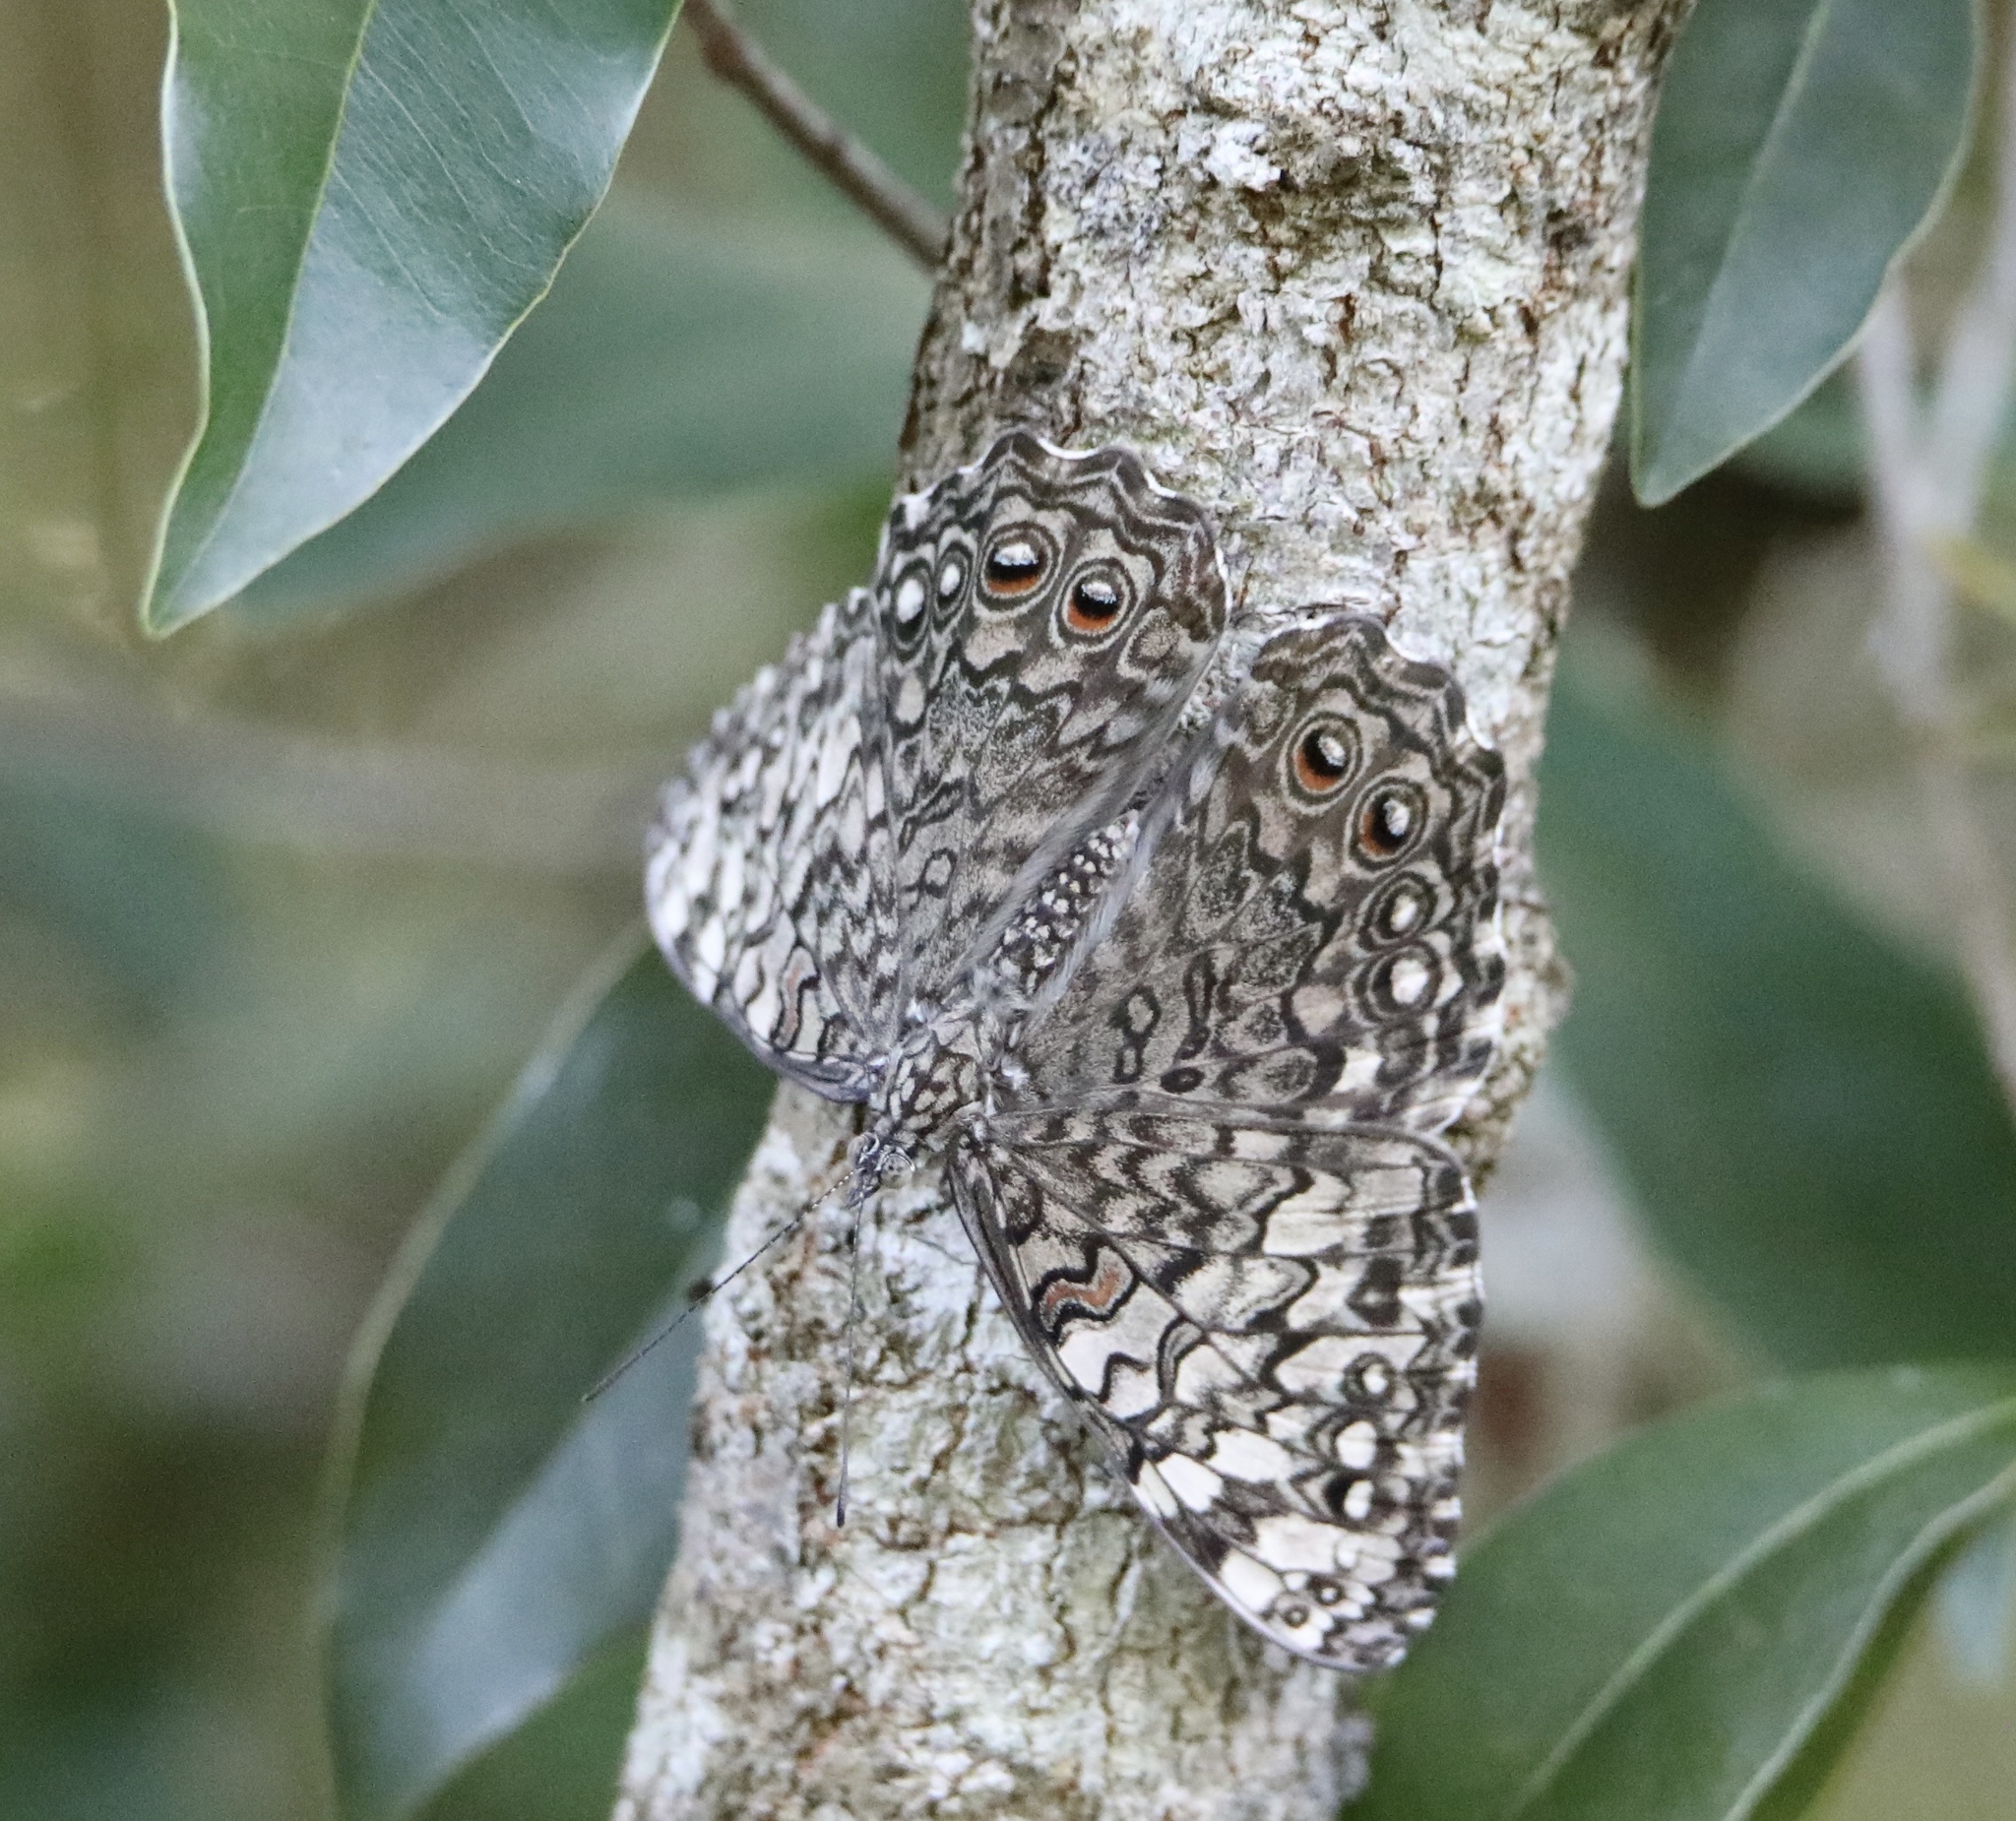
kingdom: Animalia
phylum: Arthropoda
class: Insecta
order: Lepidoptera
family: Nymphalidae
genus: Hamadryas
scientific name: Hamadryas februa
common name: Gray cracker
